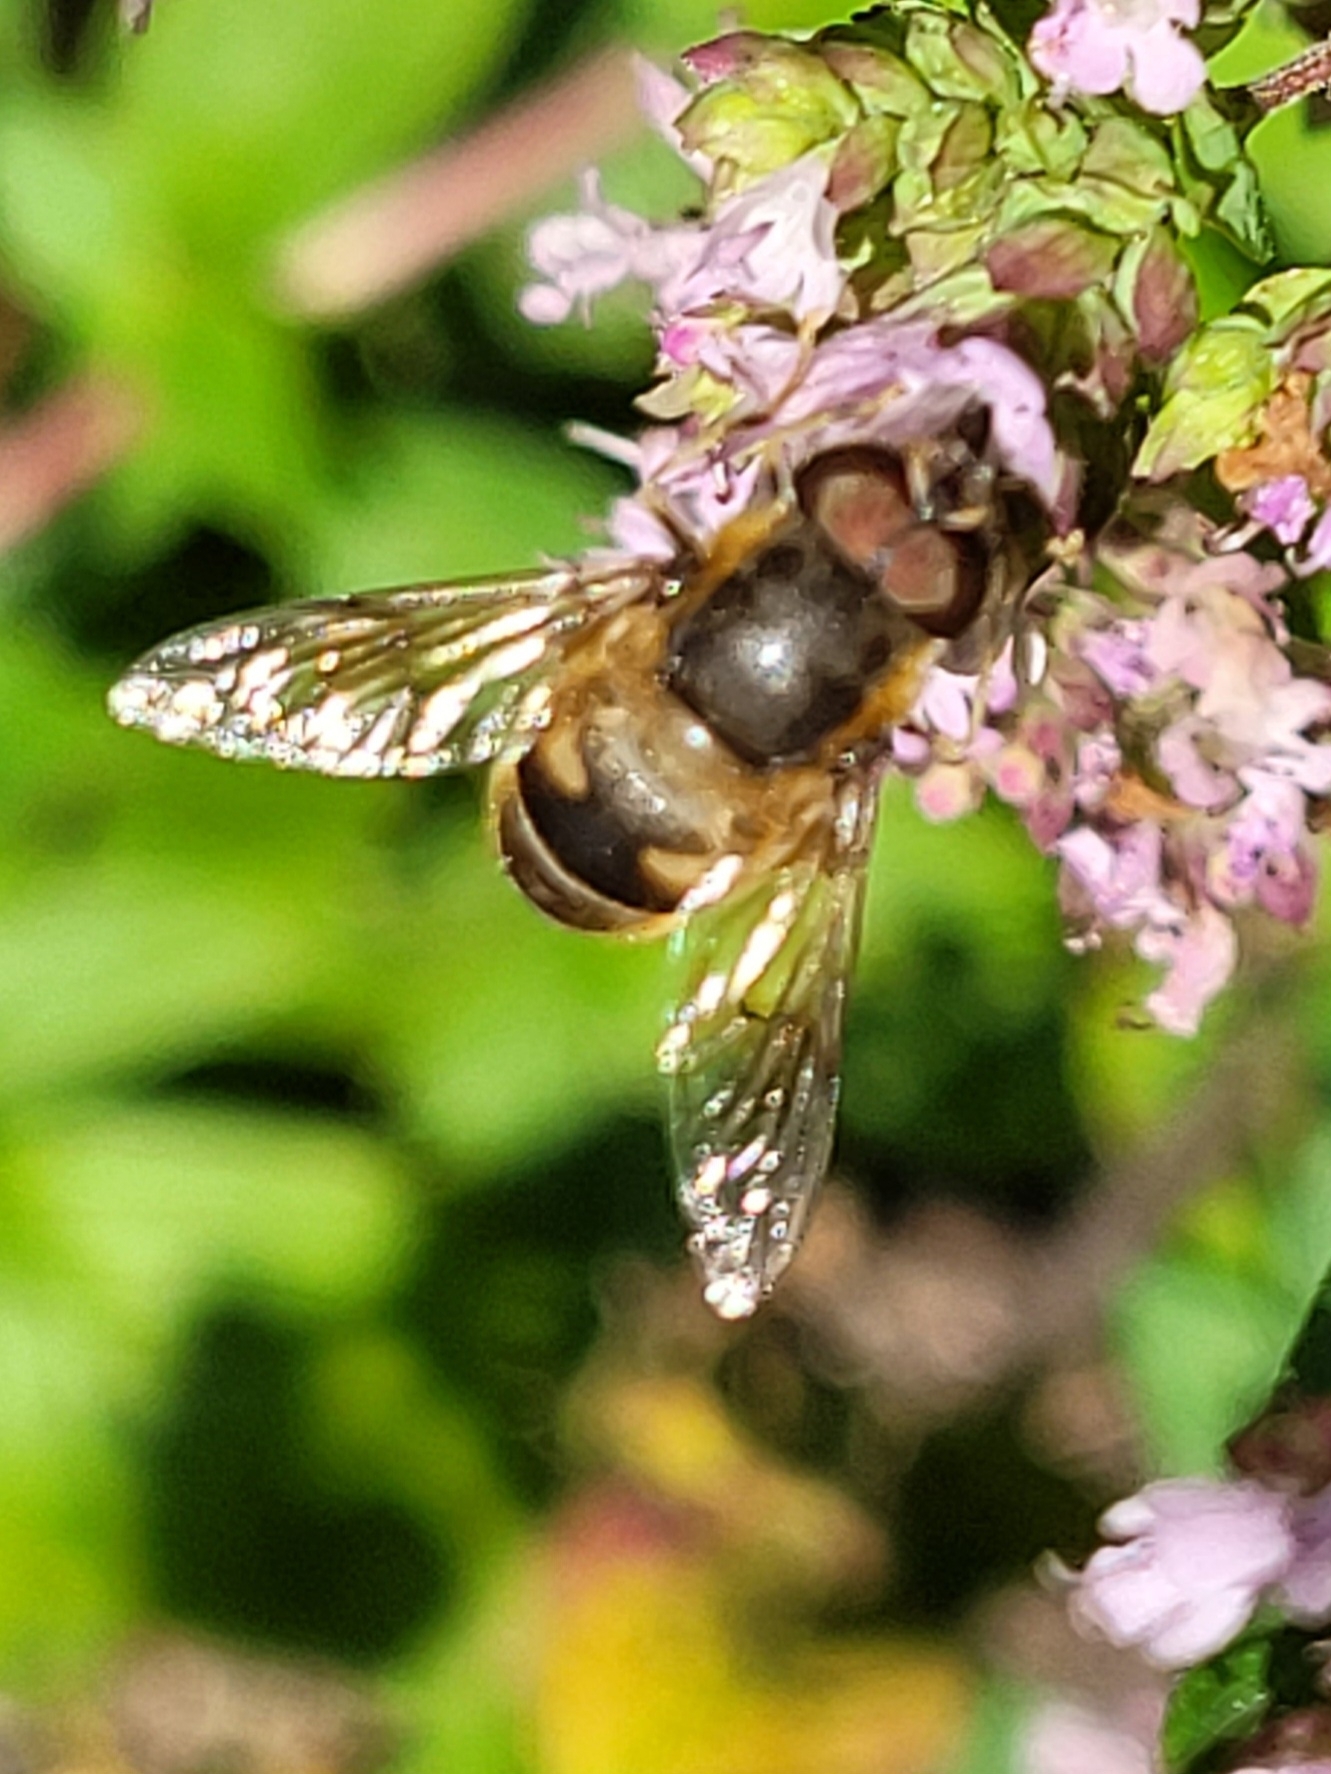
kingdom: Animalia
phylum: Arthropoda
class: Insecta
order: Diptera
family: Syrphidae
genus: Eristalis
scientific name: Eristalis pertinax
